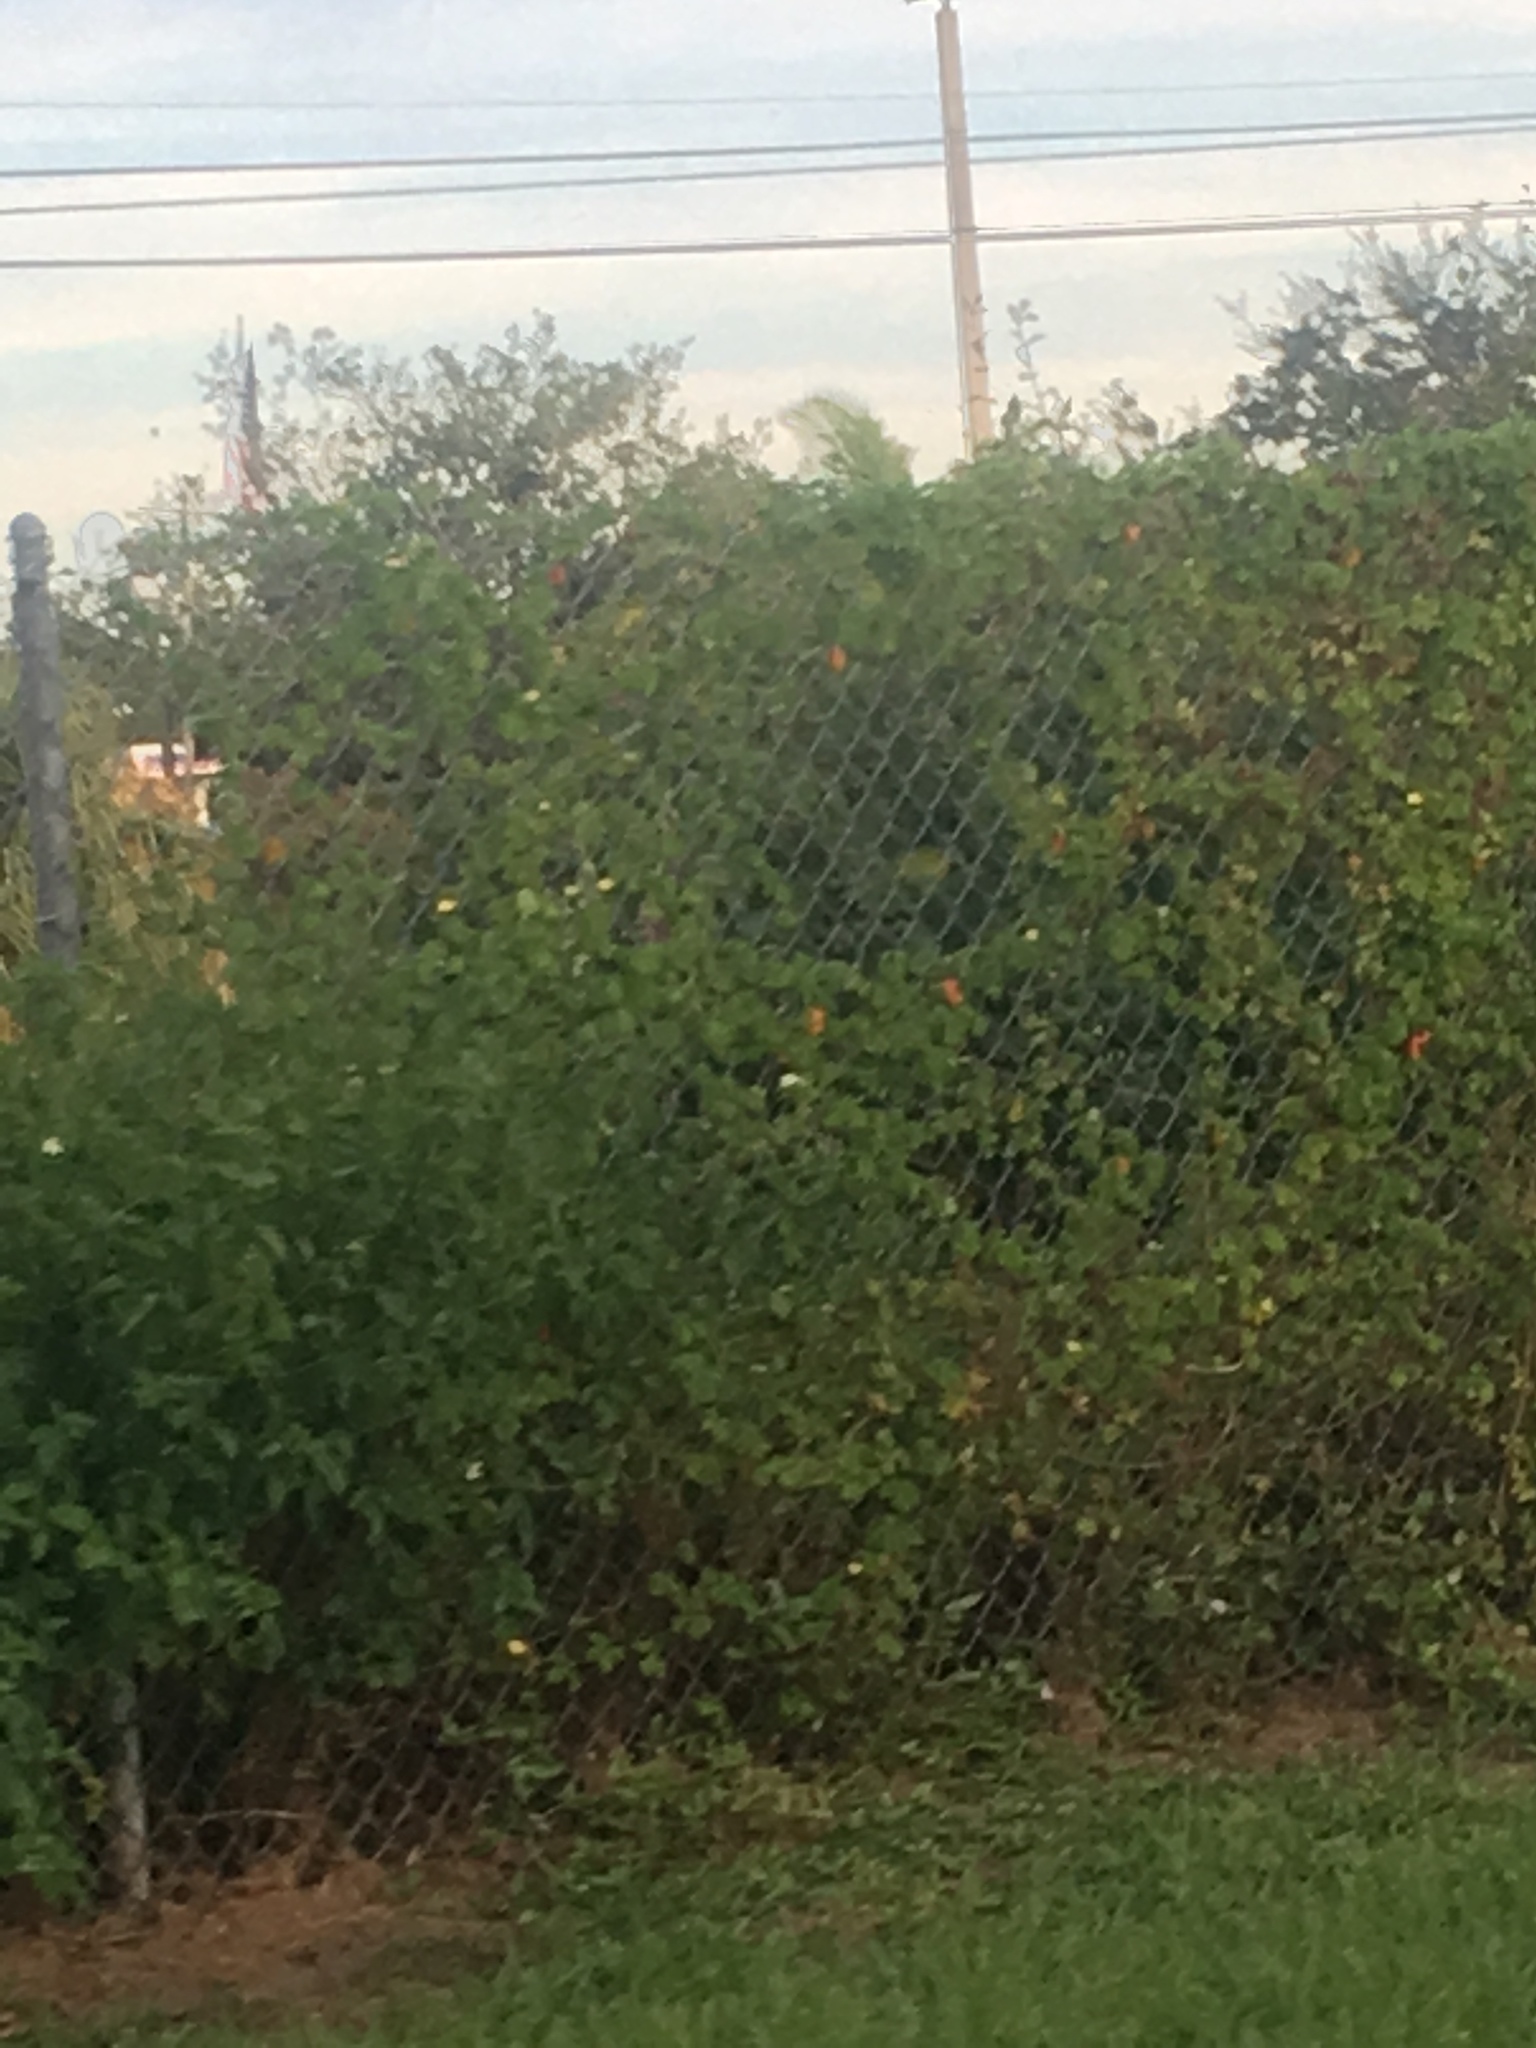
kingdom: Plantae
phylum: Tracheophyta
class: Magnoliopsida
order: Cucurbitales
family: Cucurbitaceae
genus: Momordica
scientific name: Momordica charantia
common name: Balsampear
